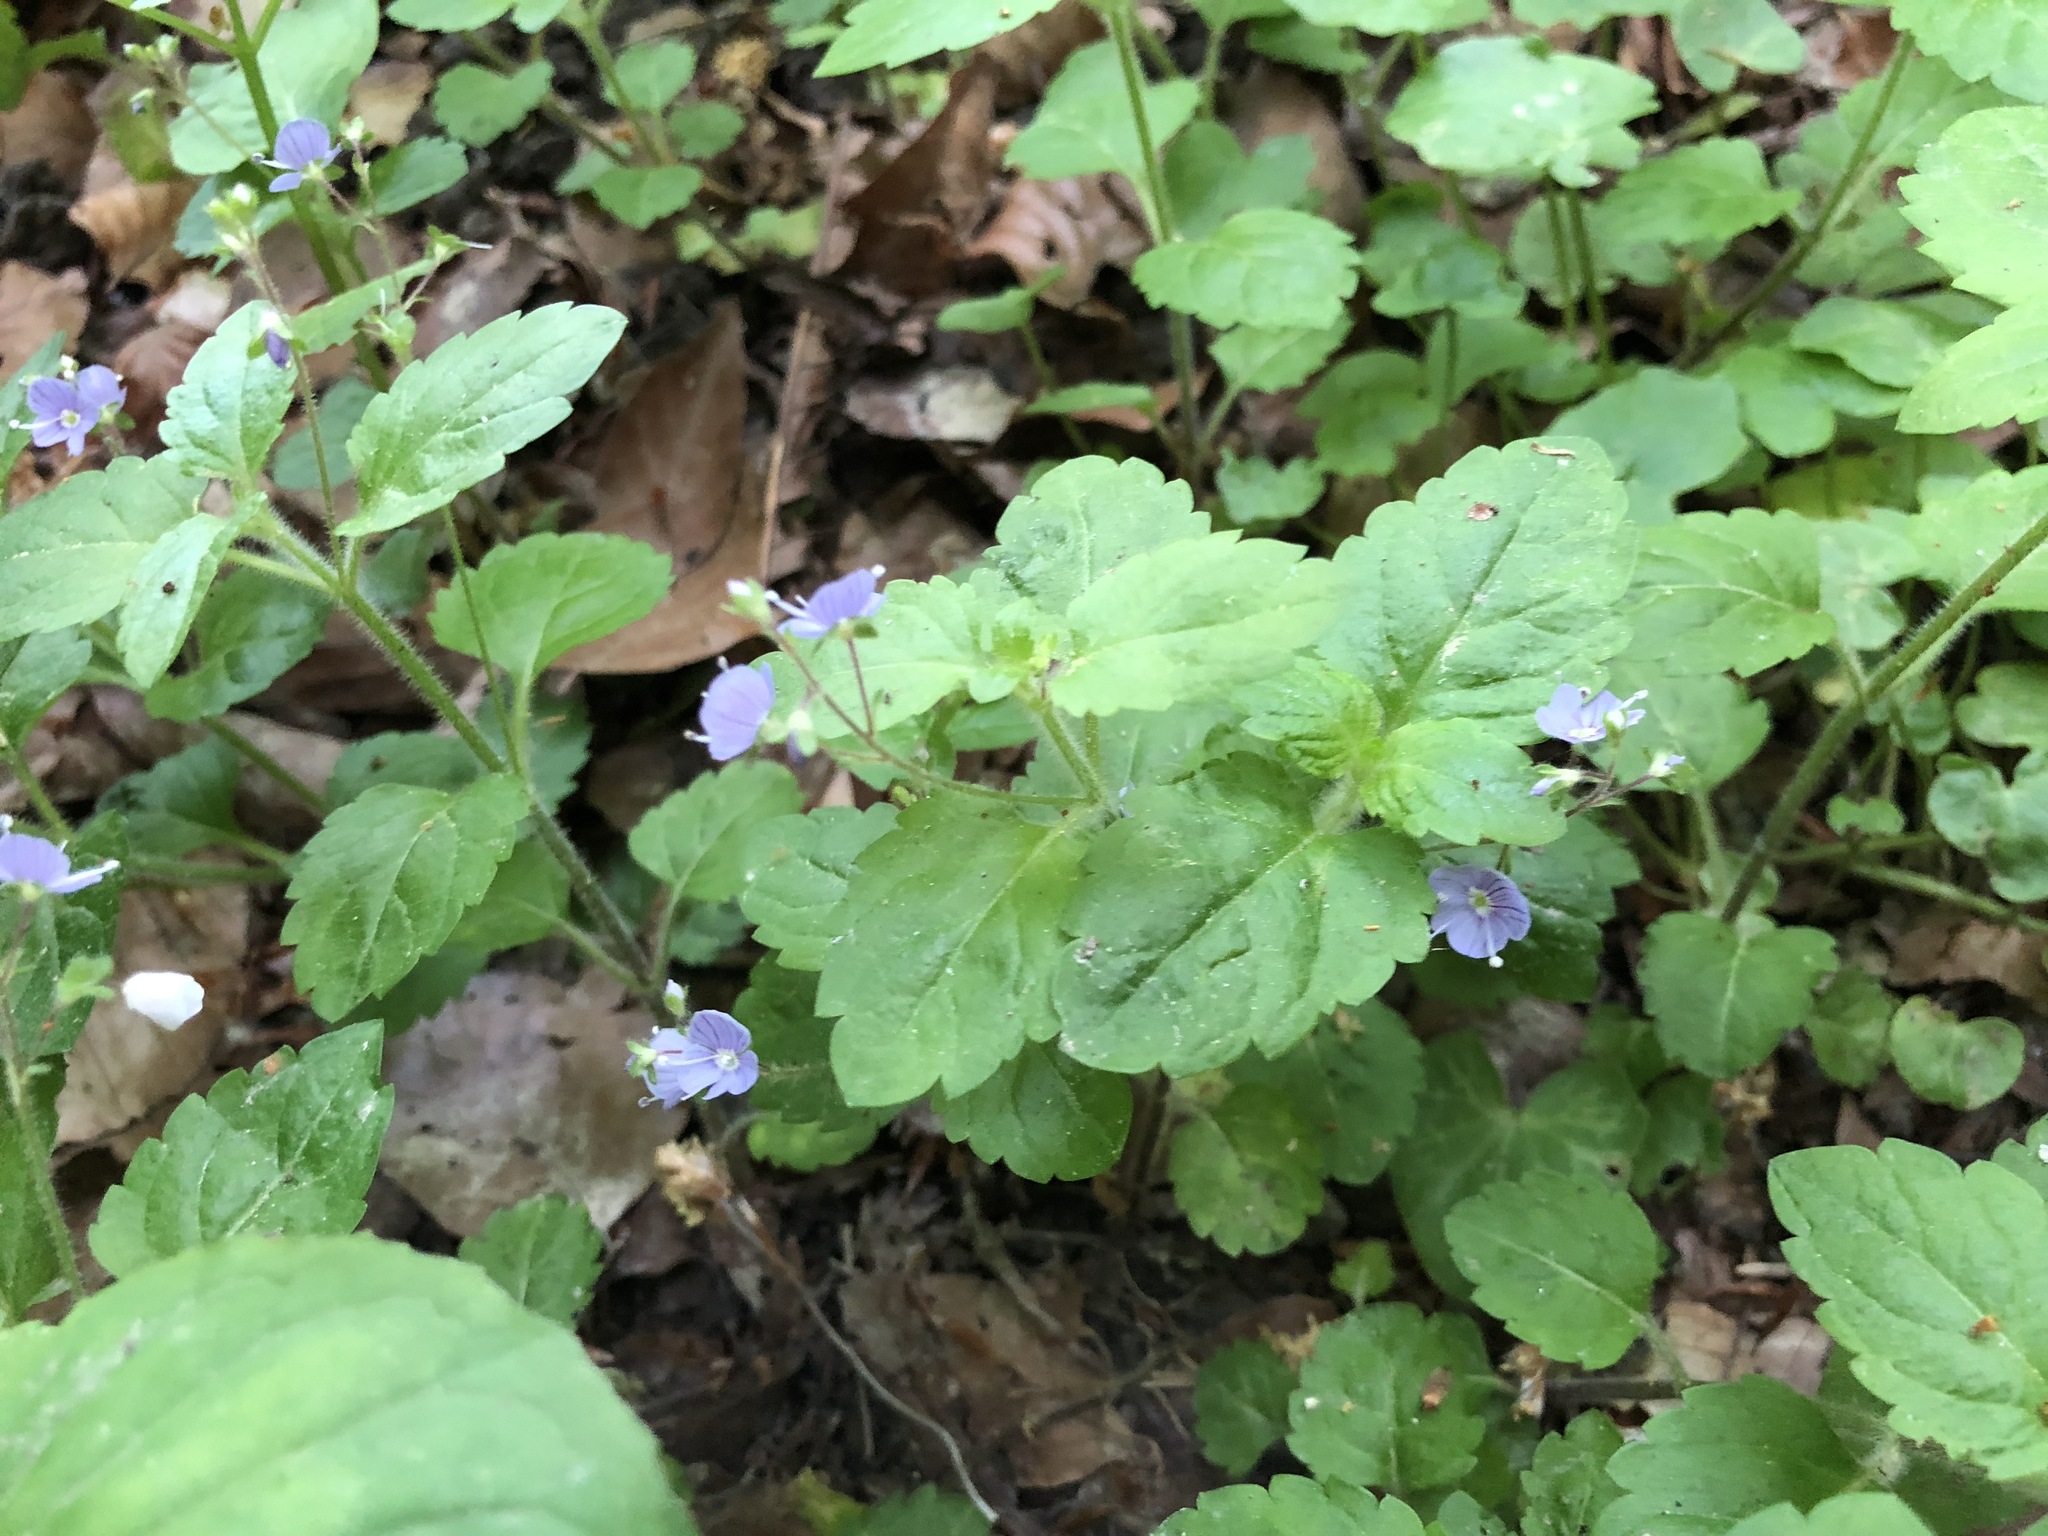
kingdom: Plantae
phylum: Tracheophyta
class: Magnoliopsida
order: Lamiales
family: Plantaginaceae
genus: Veronica
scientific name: Veronica montana
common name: Wood speedwell
